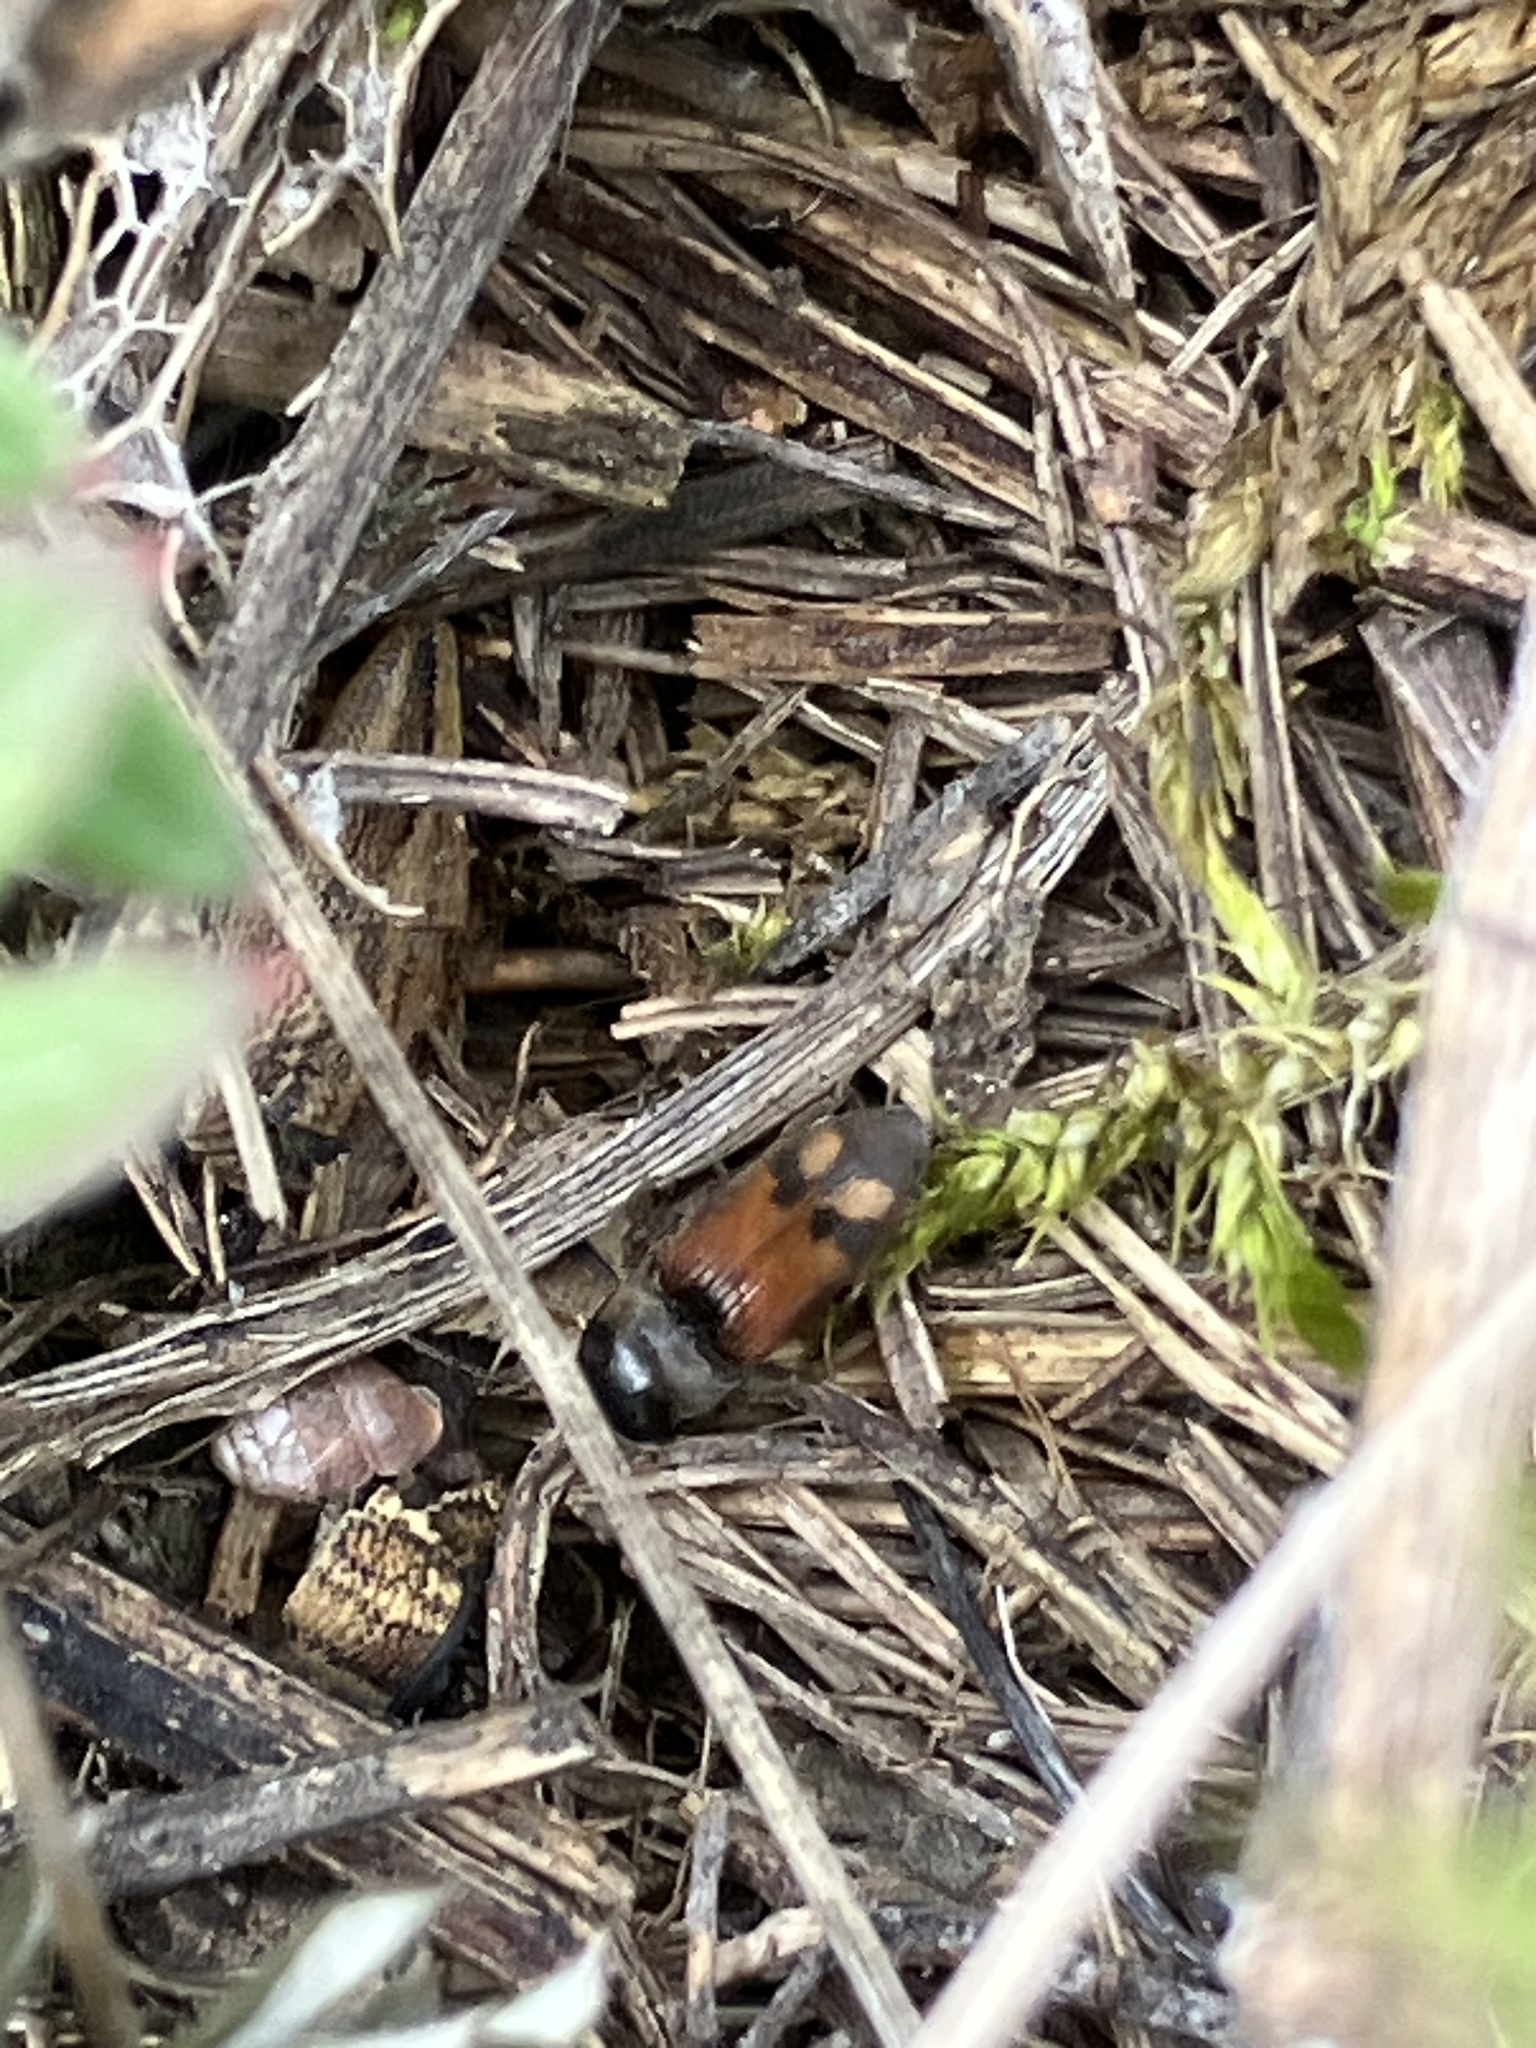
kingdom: Animalia
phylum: Arthropoda
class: Insecta
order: Coleoptera
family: Elateridae
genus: Drasterius
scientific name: Drasterius bimaculatus
